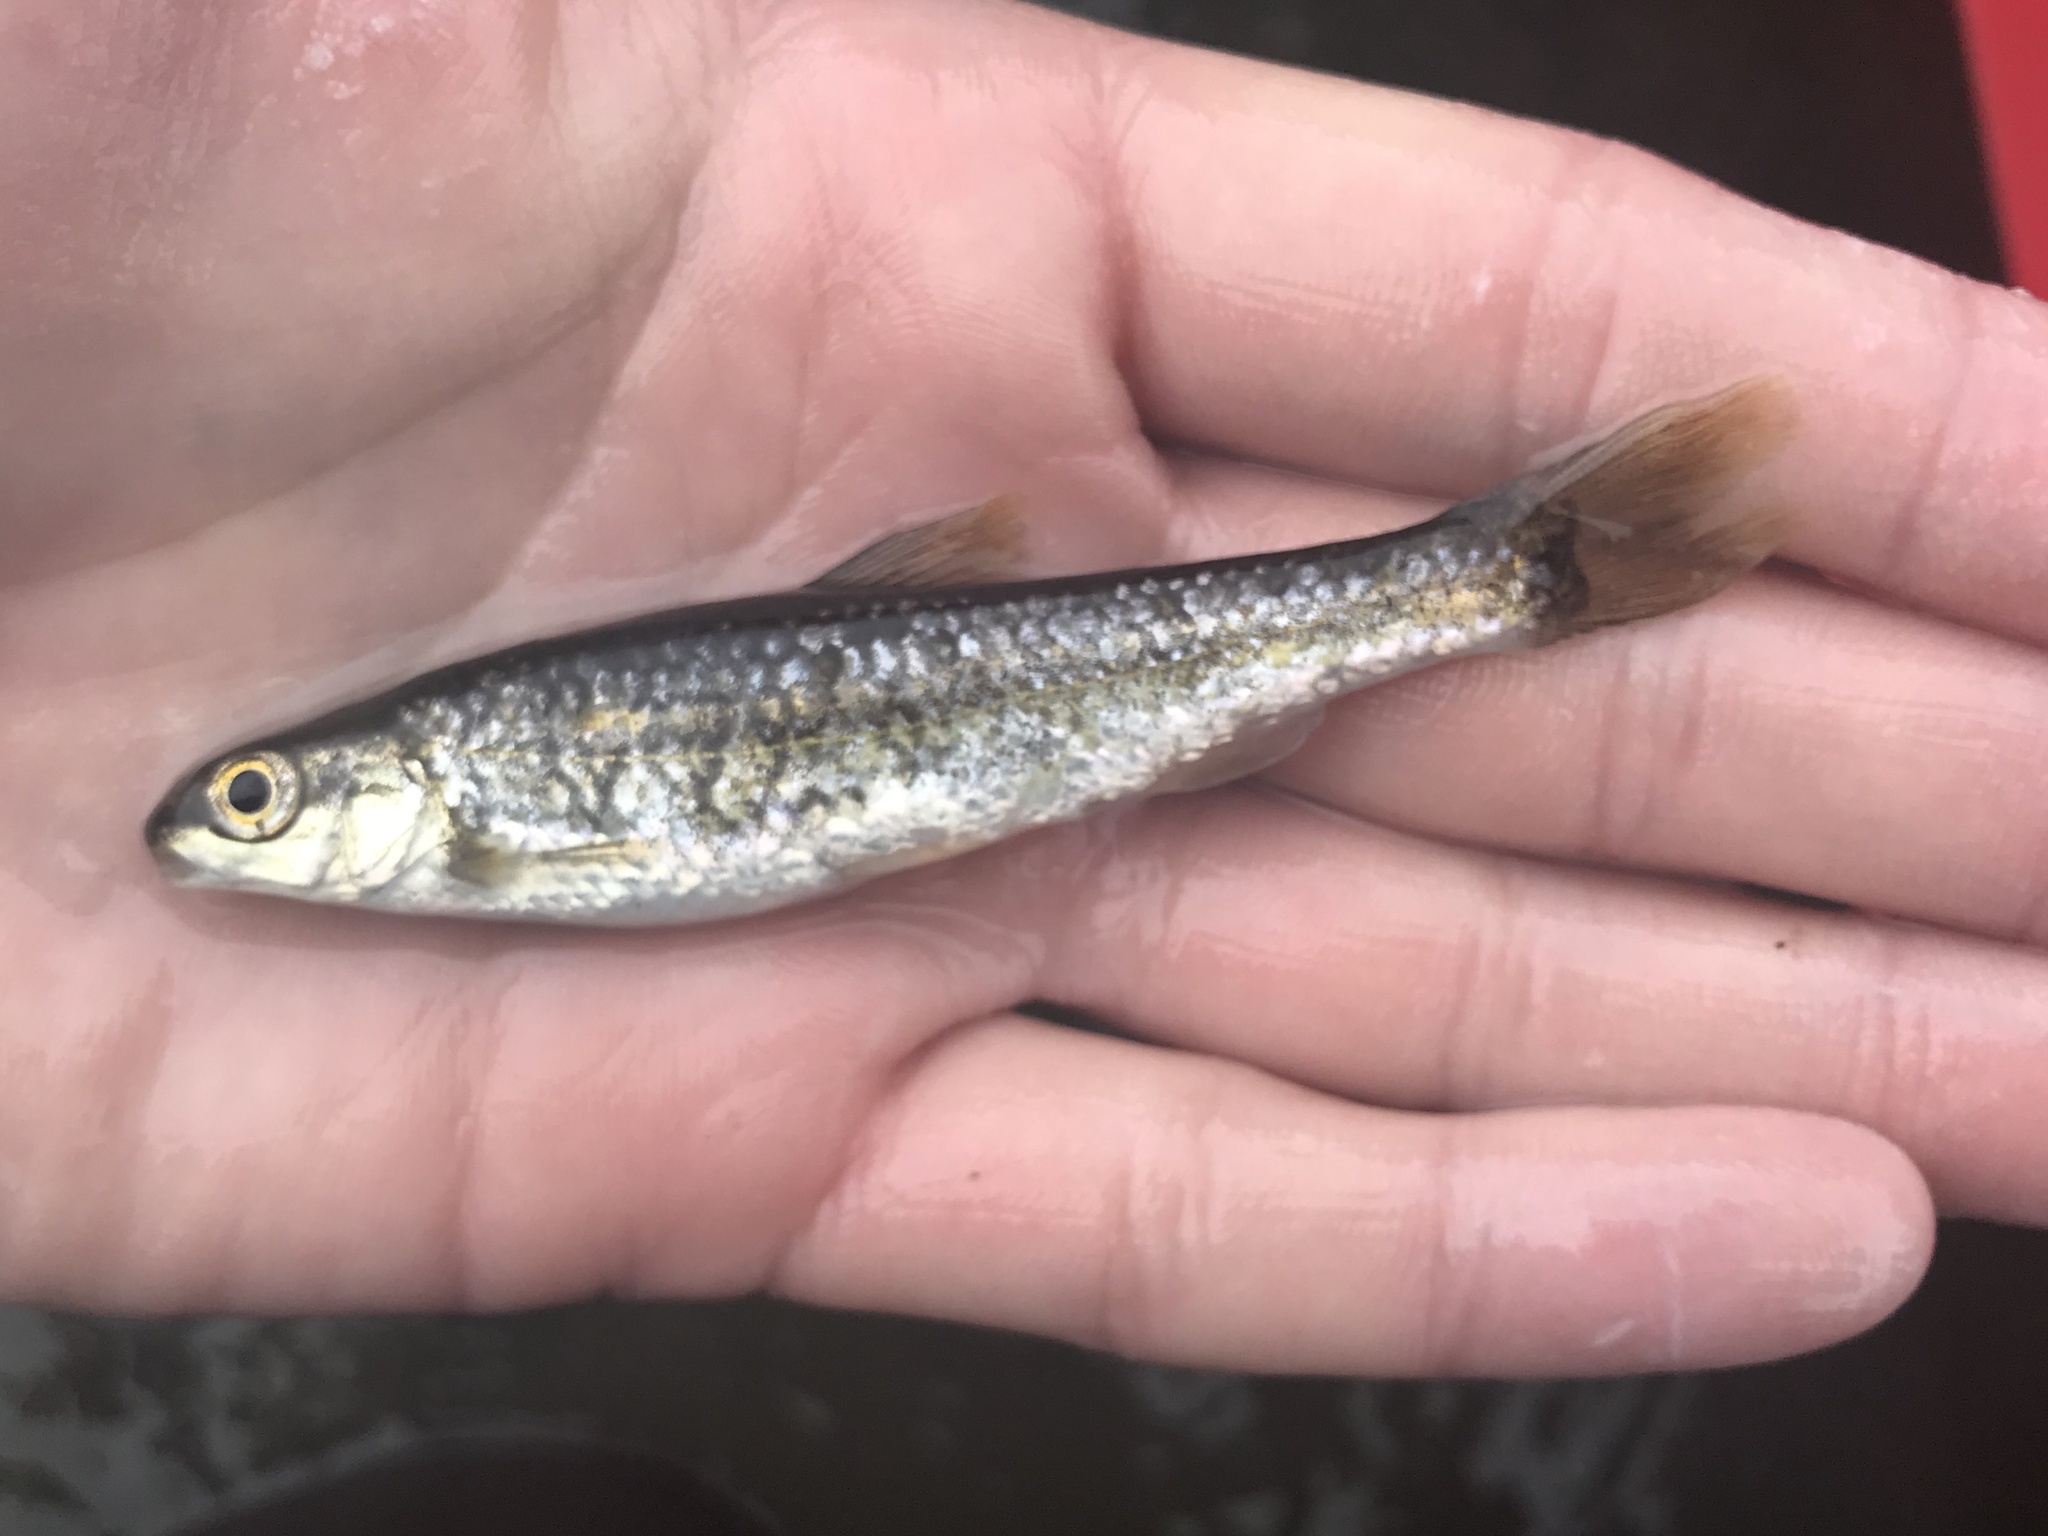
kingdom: Animalia
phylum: Chordata
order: Cypriniformes
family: Cyprinidae
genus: Dionda
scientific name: Dionda flavipinnis
